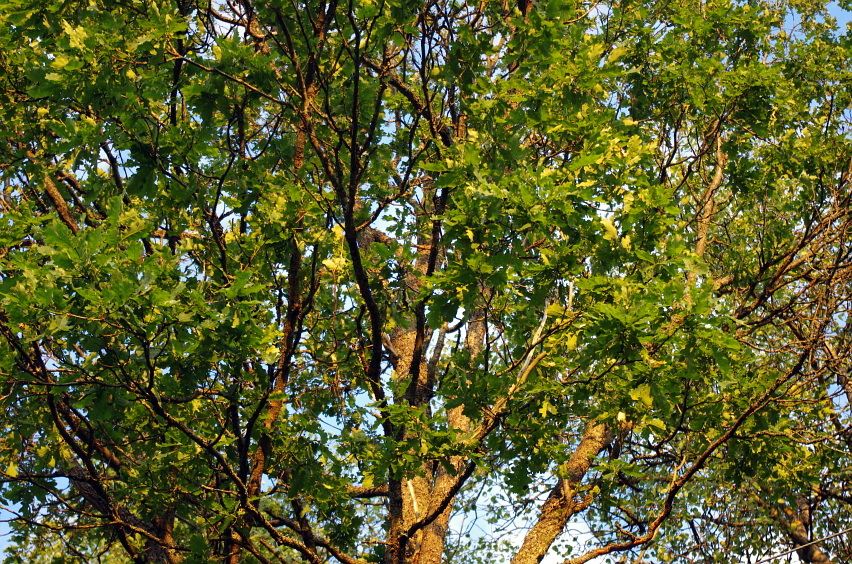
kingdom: Plantae
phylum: Tracheophyta
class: Magnoliopsida
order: Fagales
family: Fagaceae
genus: Quercus
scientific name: Quercus robur
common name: Pedunculate oak
